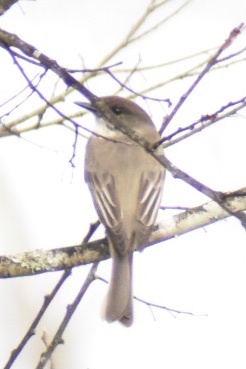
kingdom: Animalia
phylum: Chordata
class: Aves
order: Passeriformes
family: Tyrannidae
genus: Sayornis
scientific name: Sayornis phoebe
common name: Eastern phoebe
